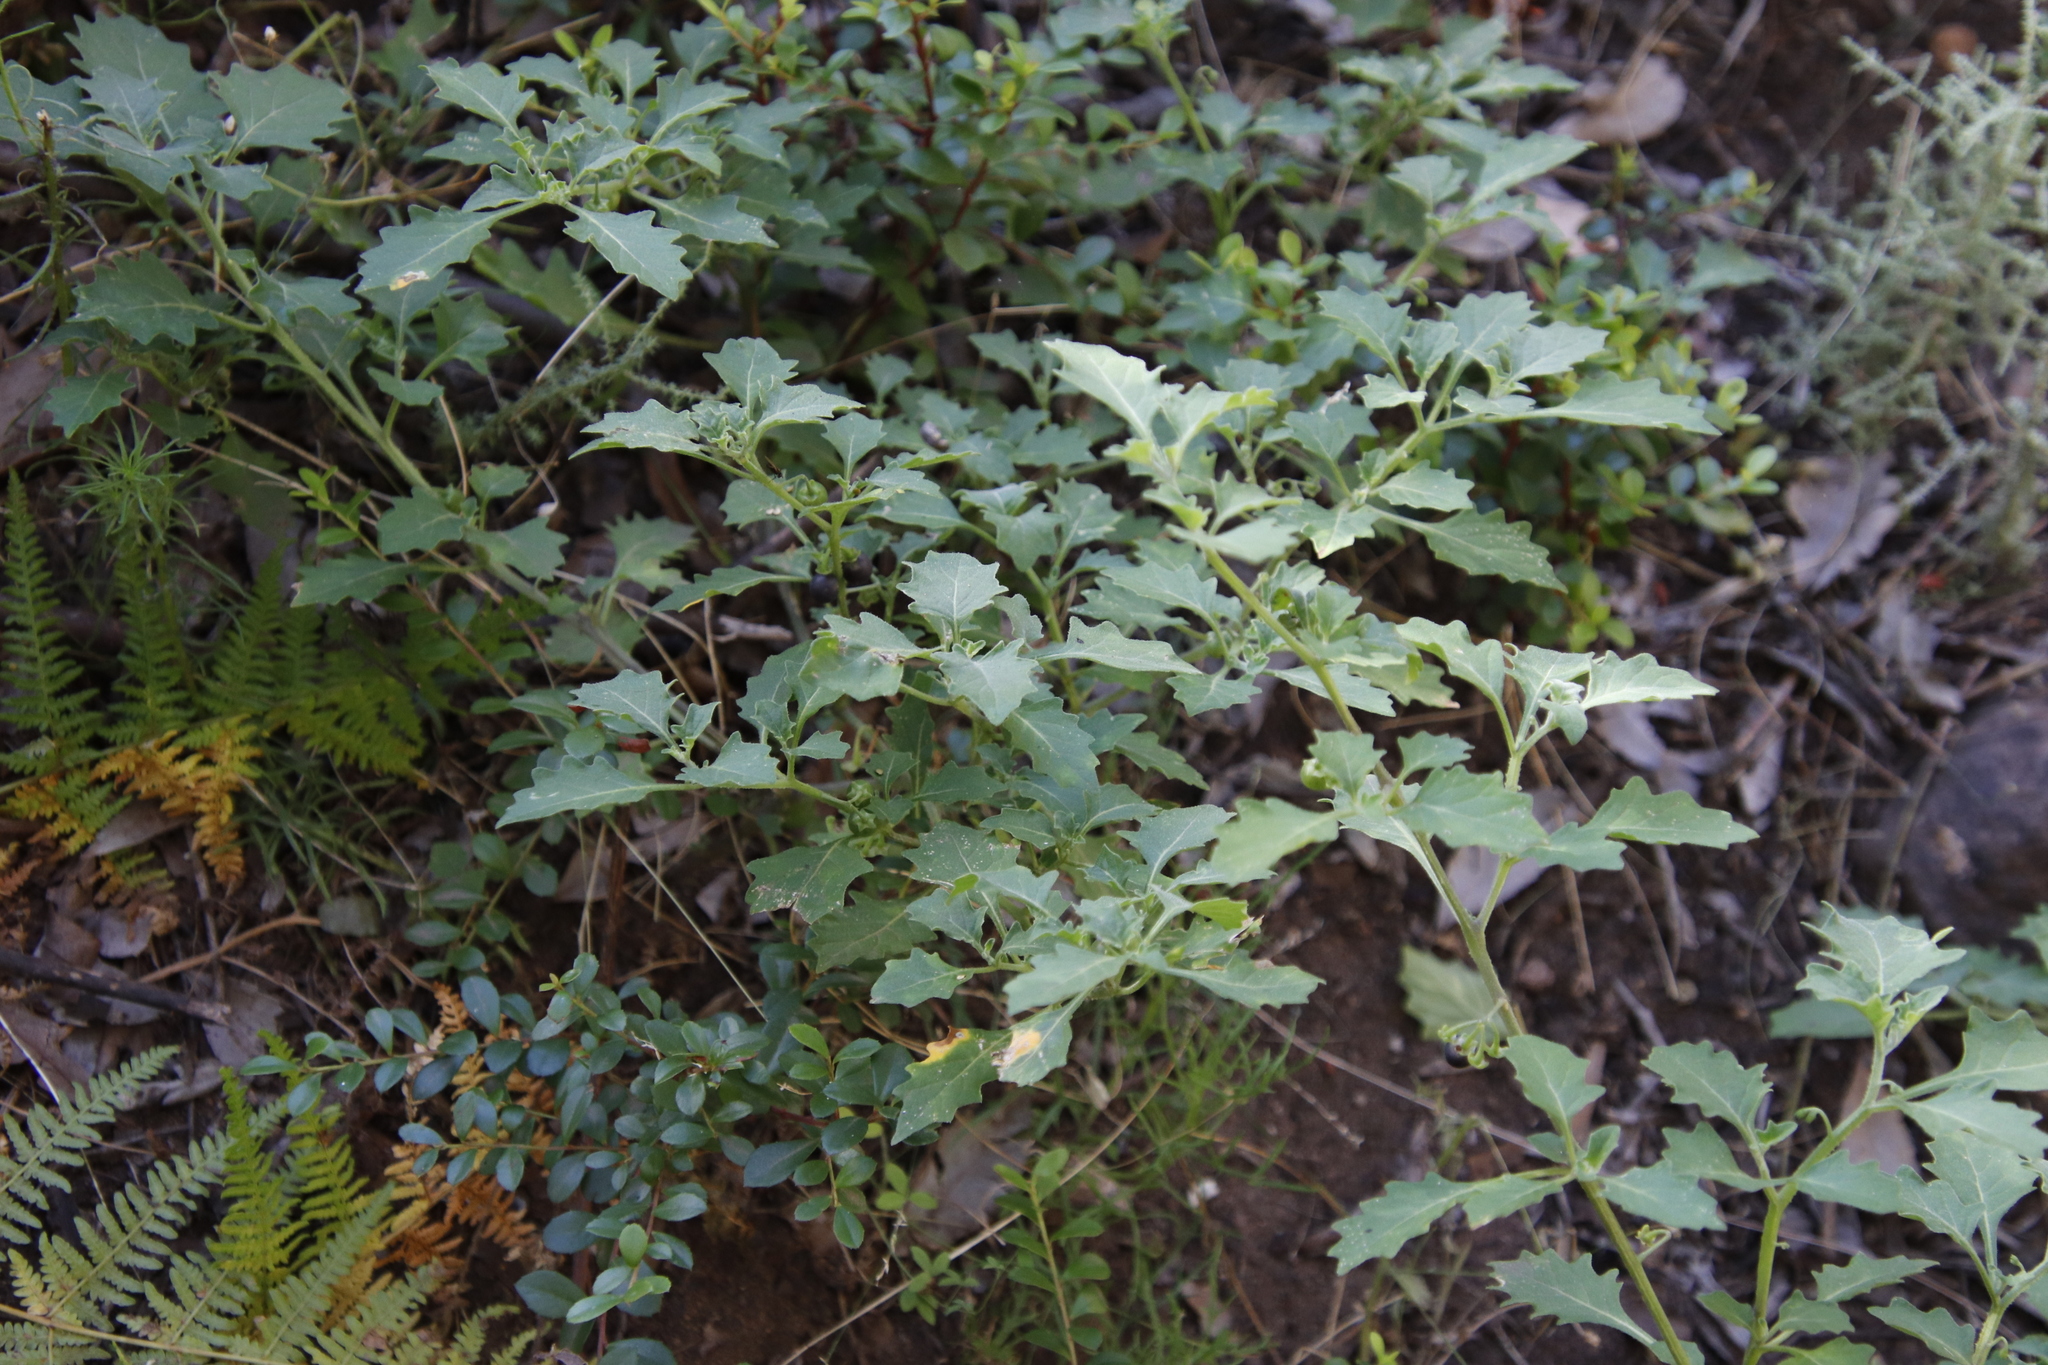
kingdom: Plantae
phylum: Tracheophyta
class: Magnoliopsida
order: Solanales
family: Solanaceae
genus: Solanum
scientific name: Solanum retroflexum
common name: Wonderberry
